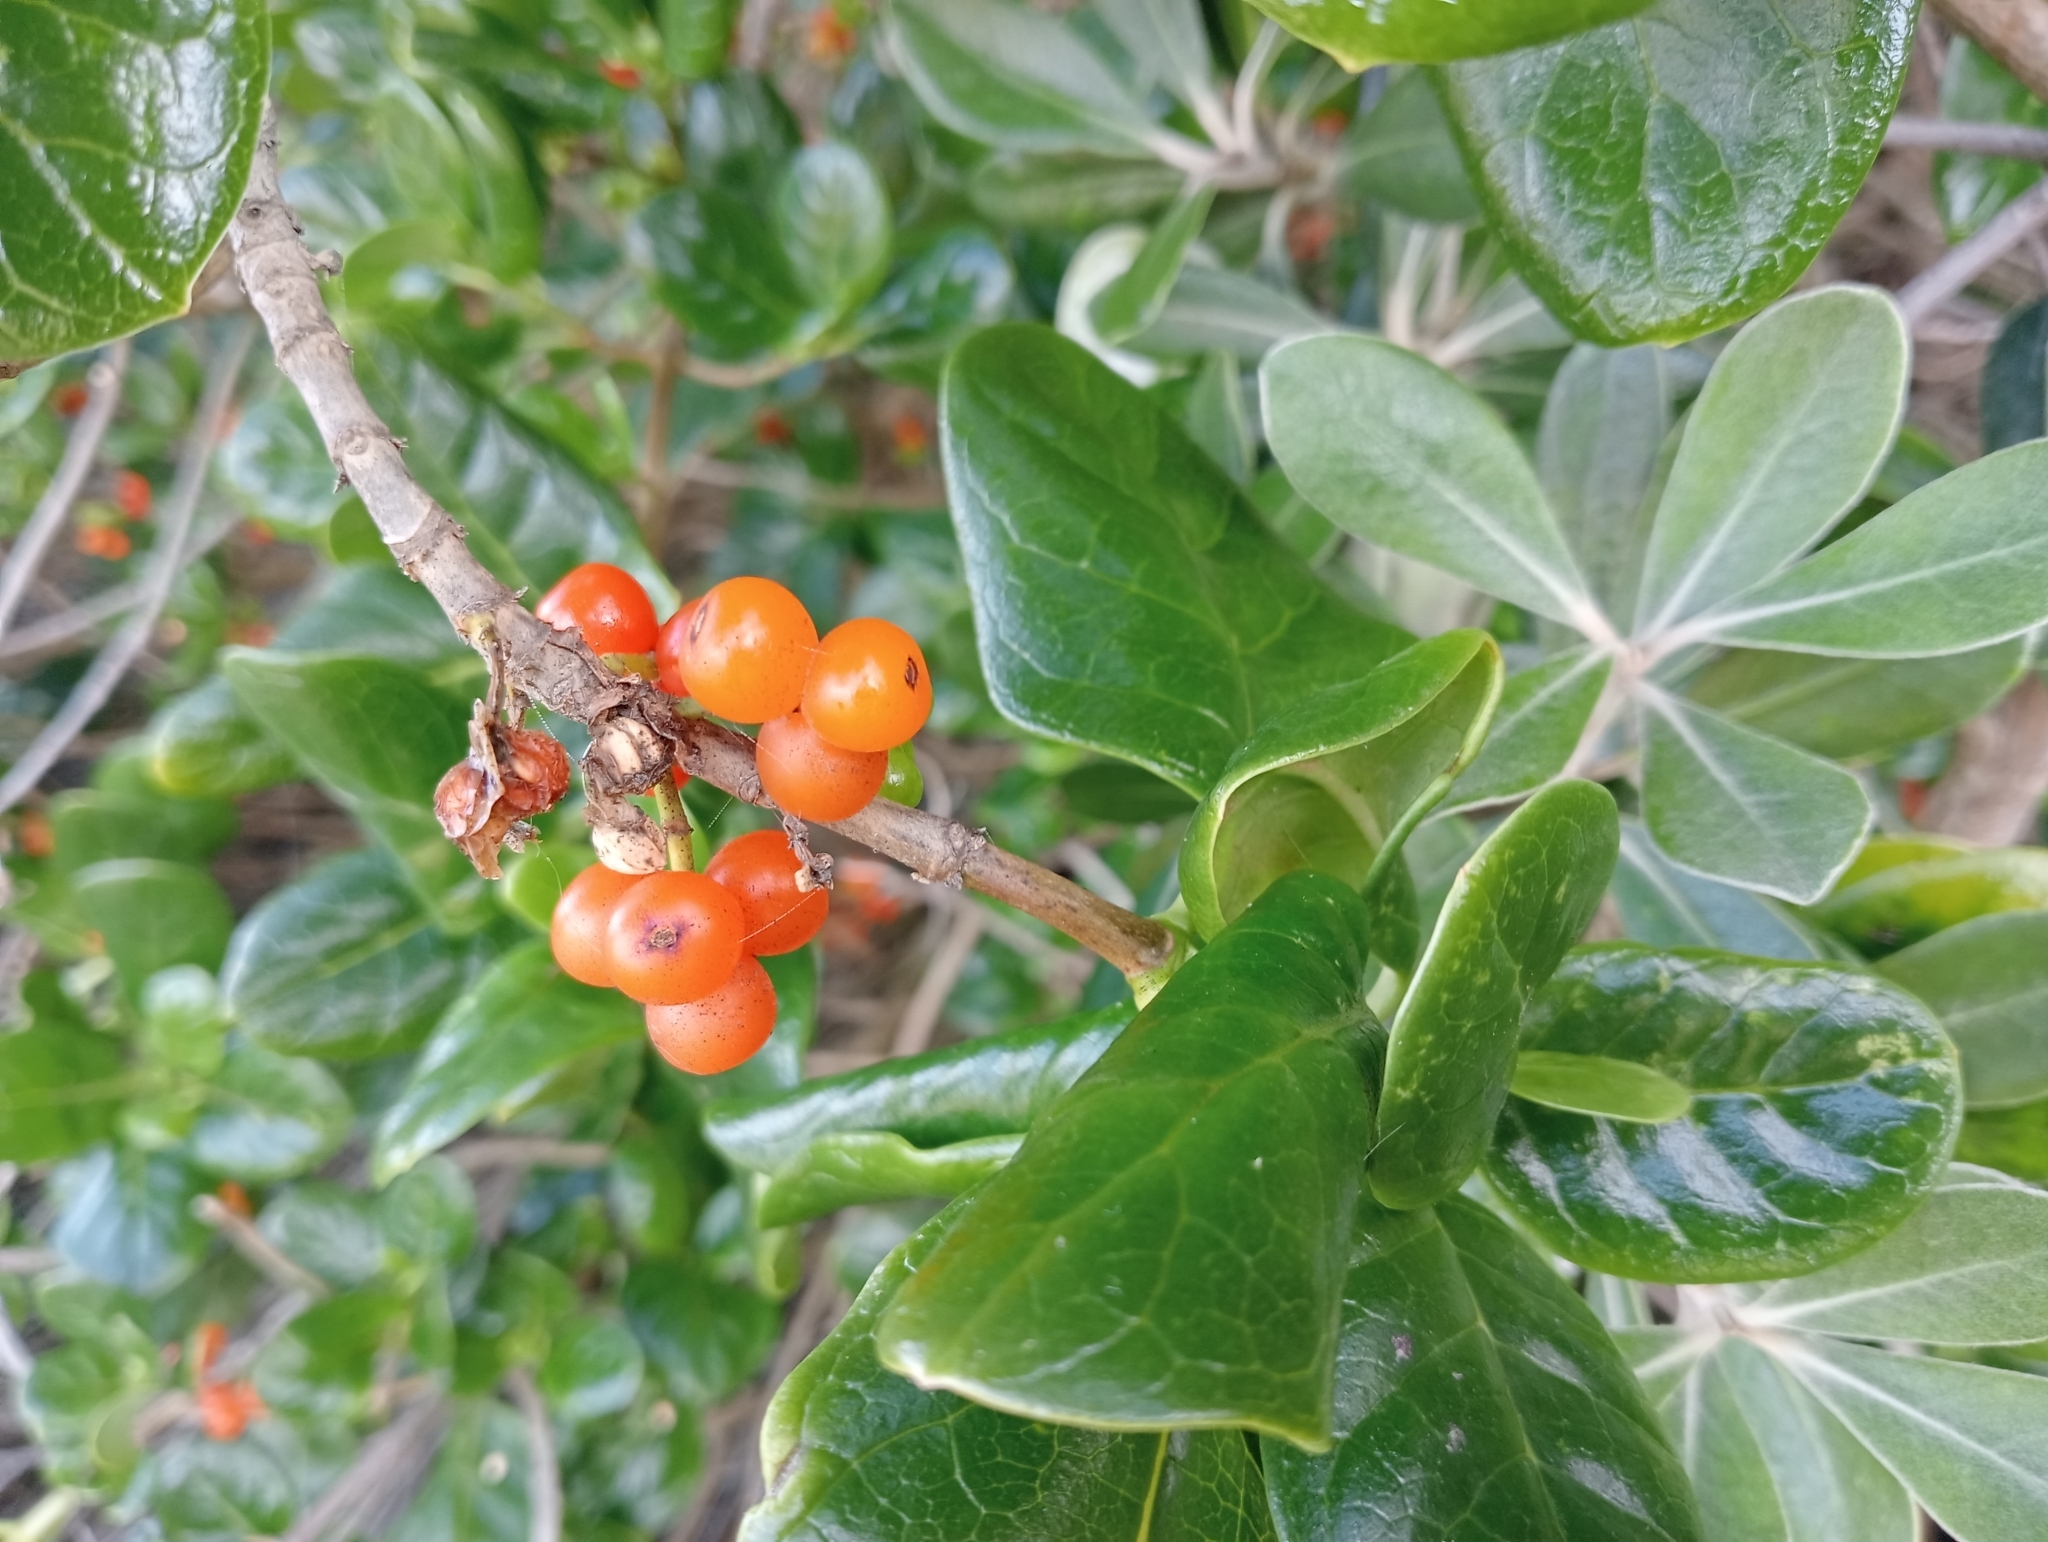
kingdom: Plantae
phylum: Tracheophyta
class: Magnoliopsida
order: Gentianales
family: Rubiaceae
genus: Coprosma
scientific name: Coprosma repens
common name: Tree bedstraw
